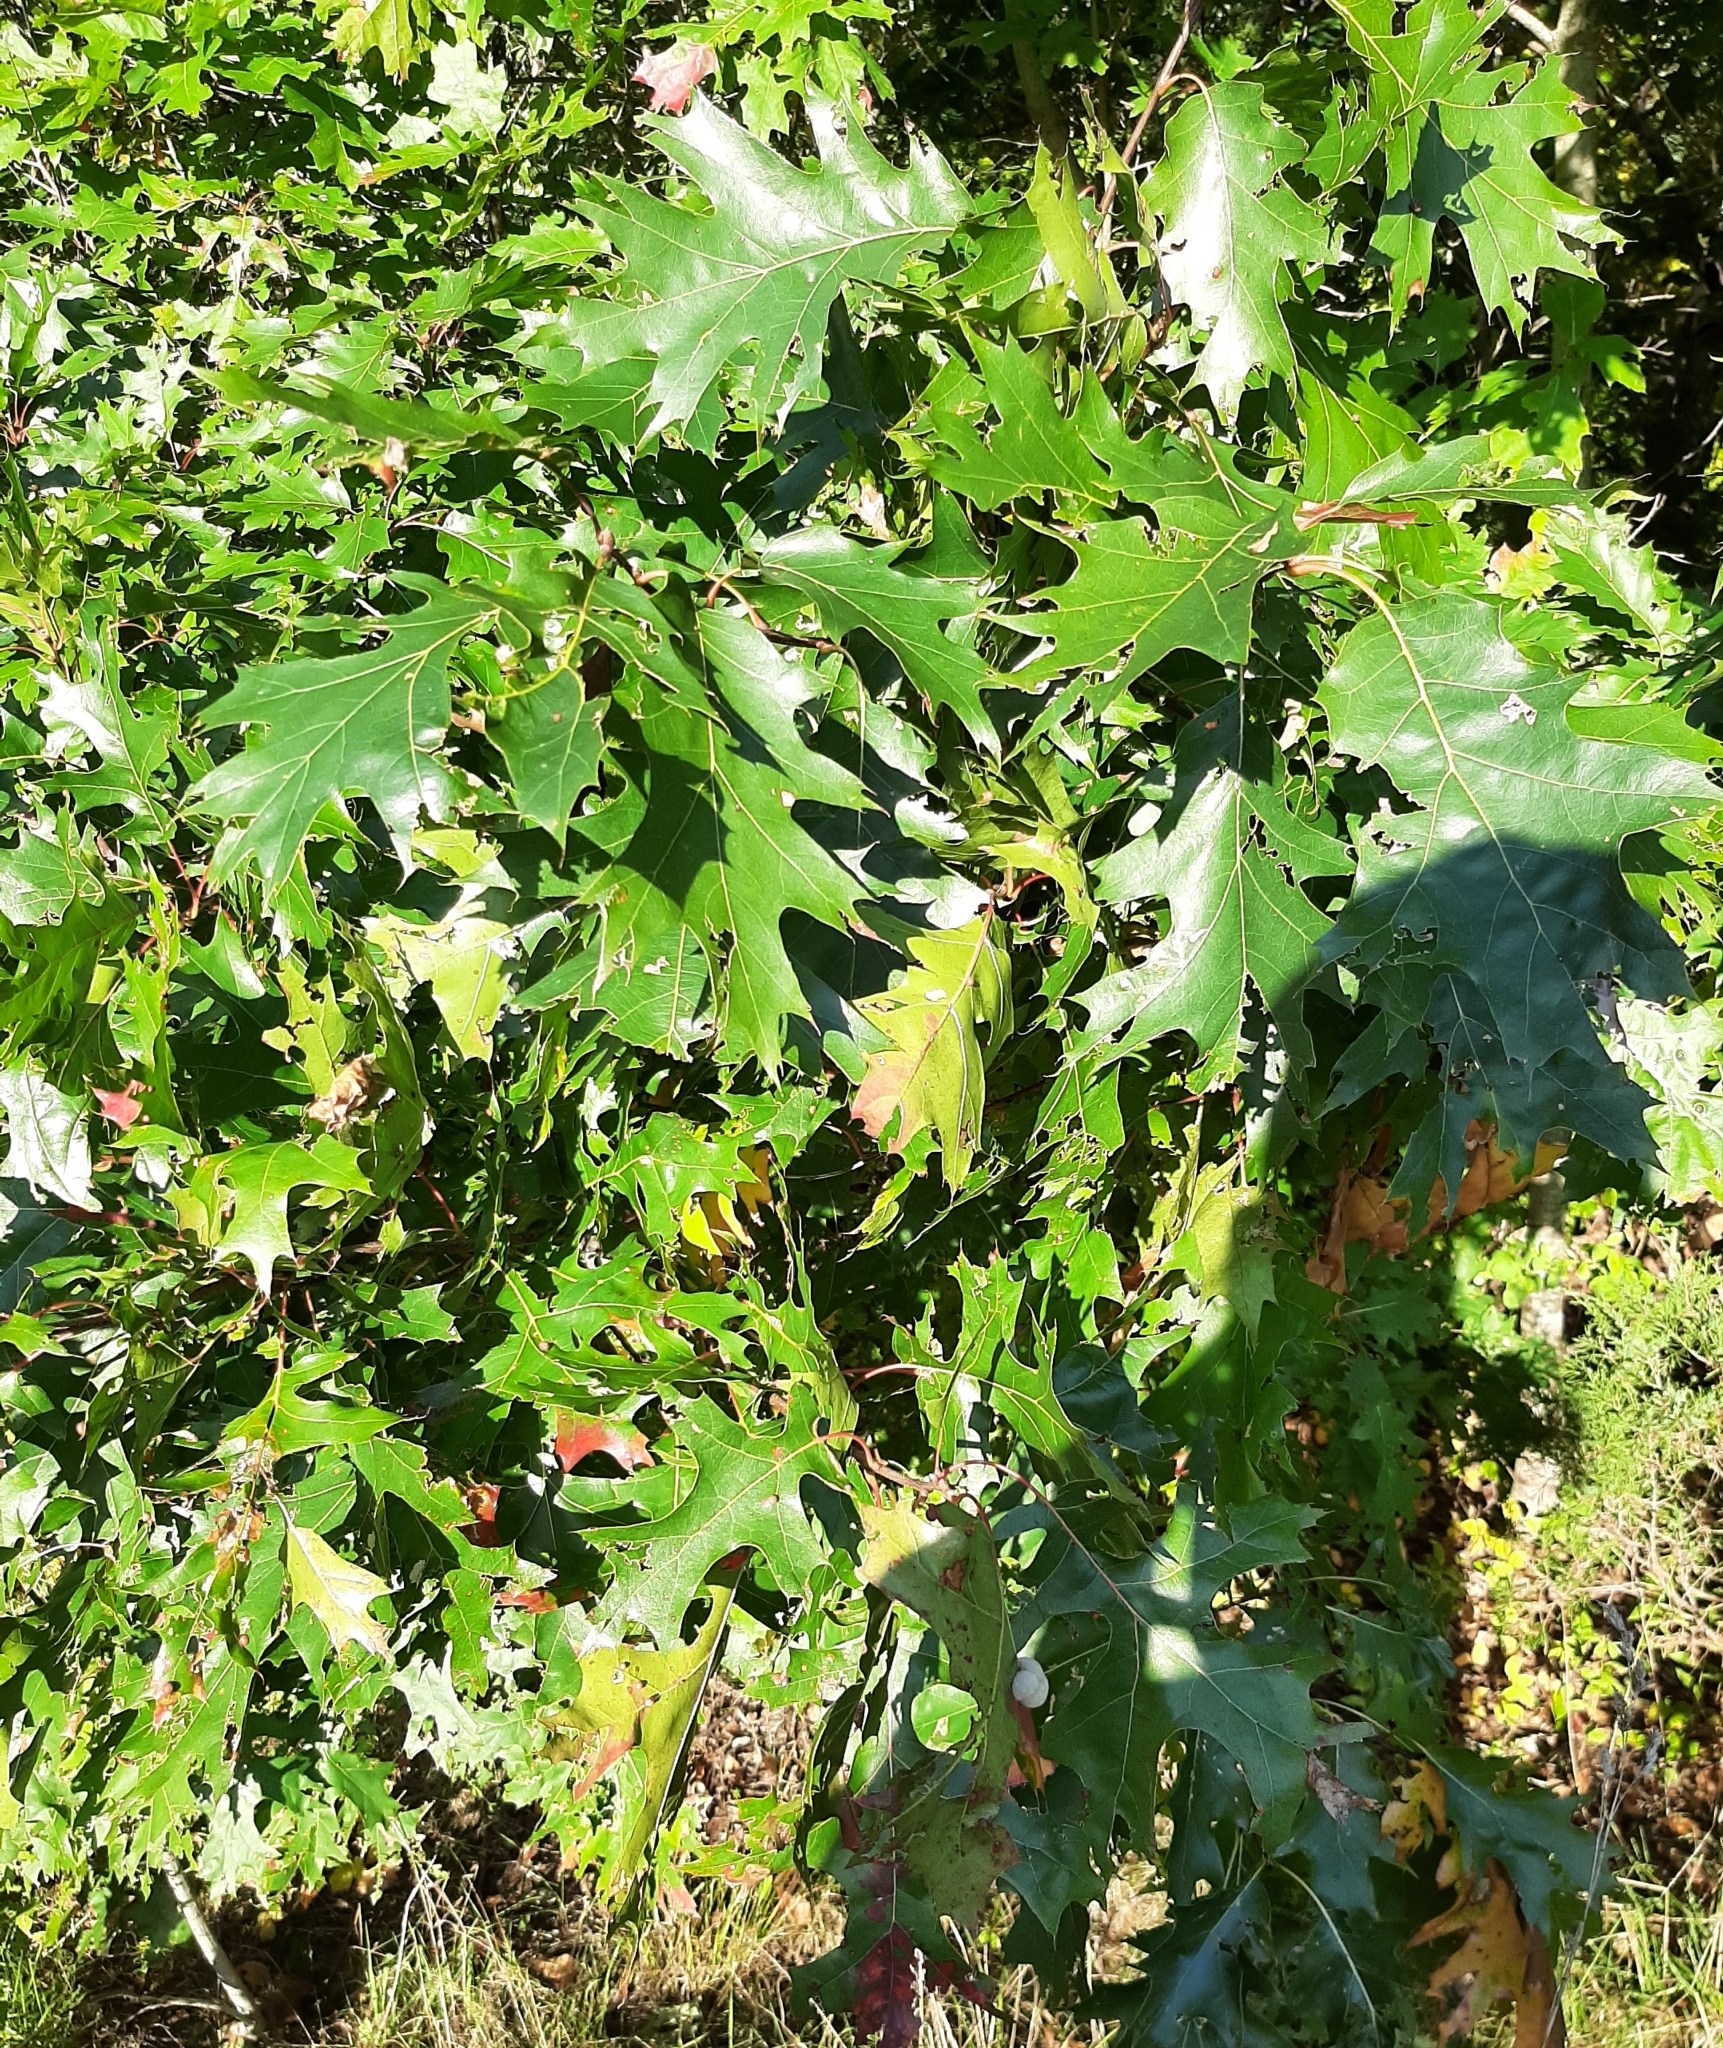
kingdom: Animalia
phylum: Arthropoda
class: Insecta
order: Hymenoptera
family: Cynipidae
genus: Callirhytis
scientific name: Callirhytis
